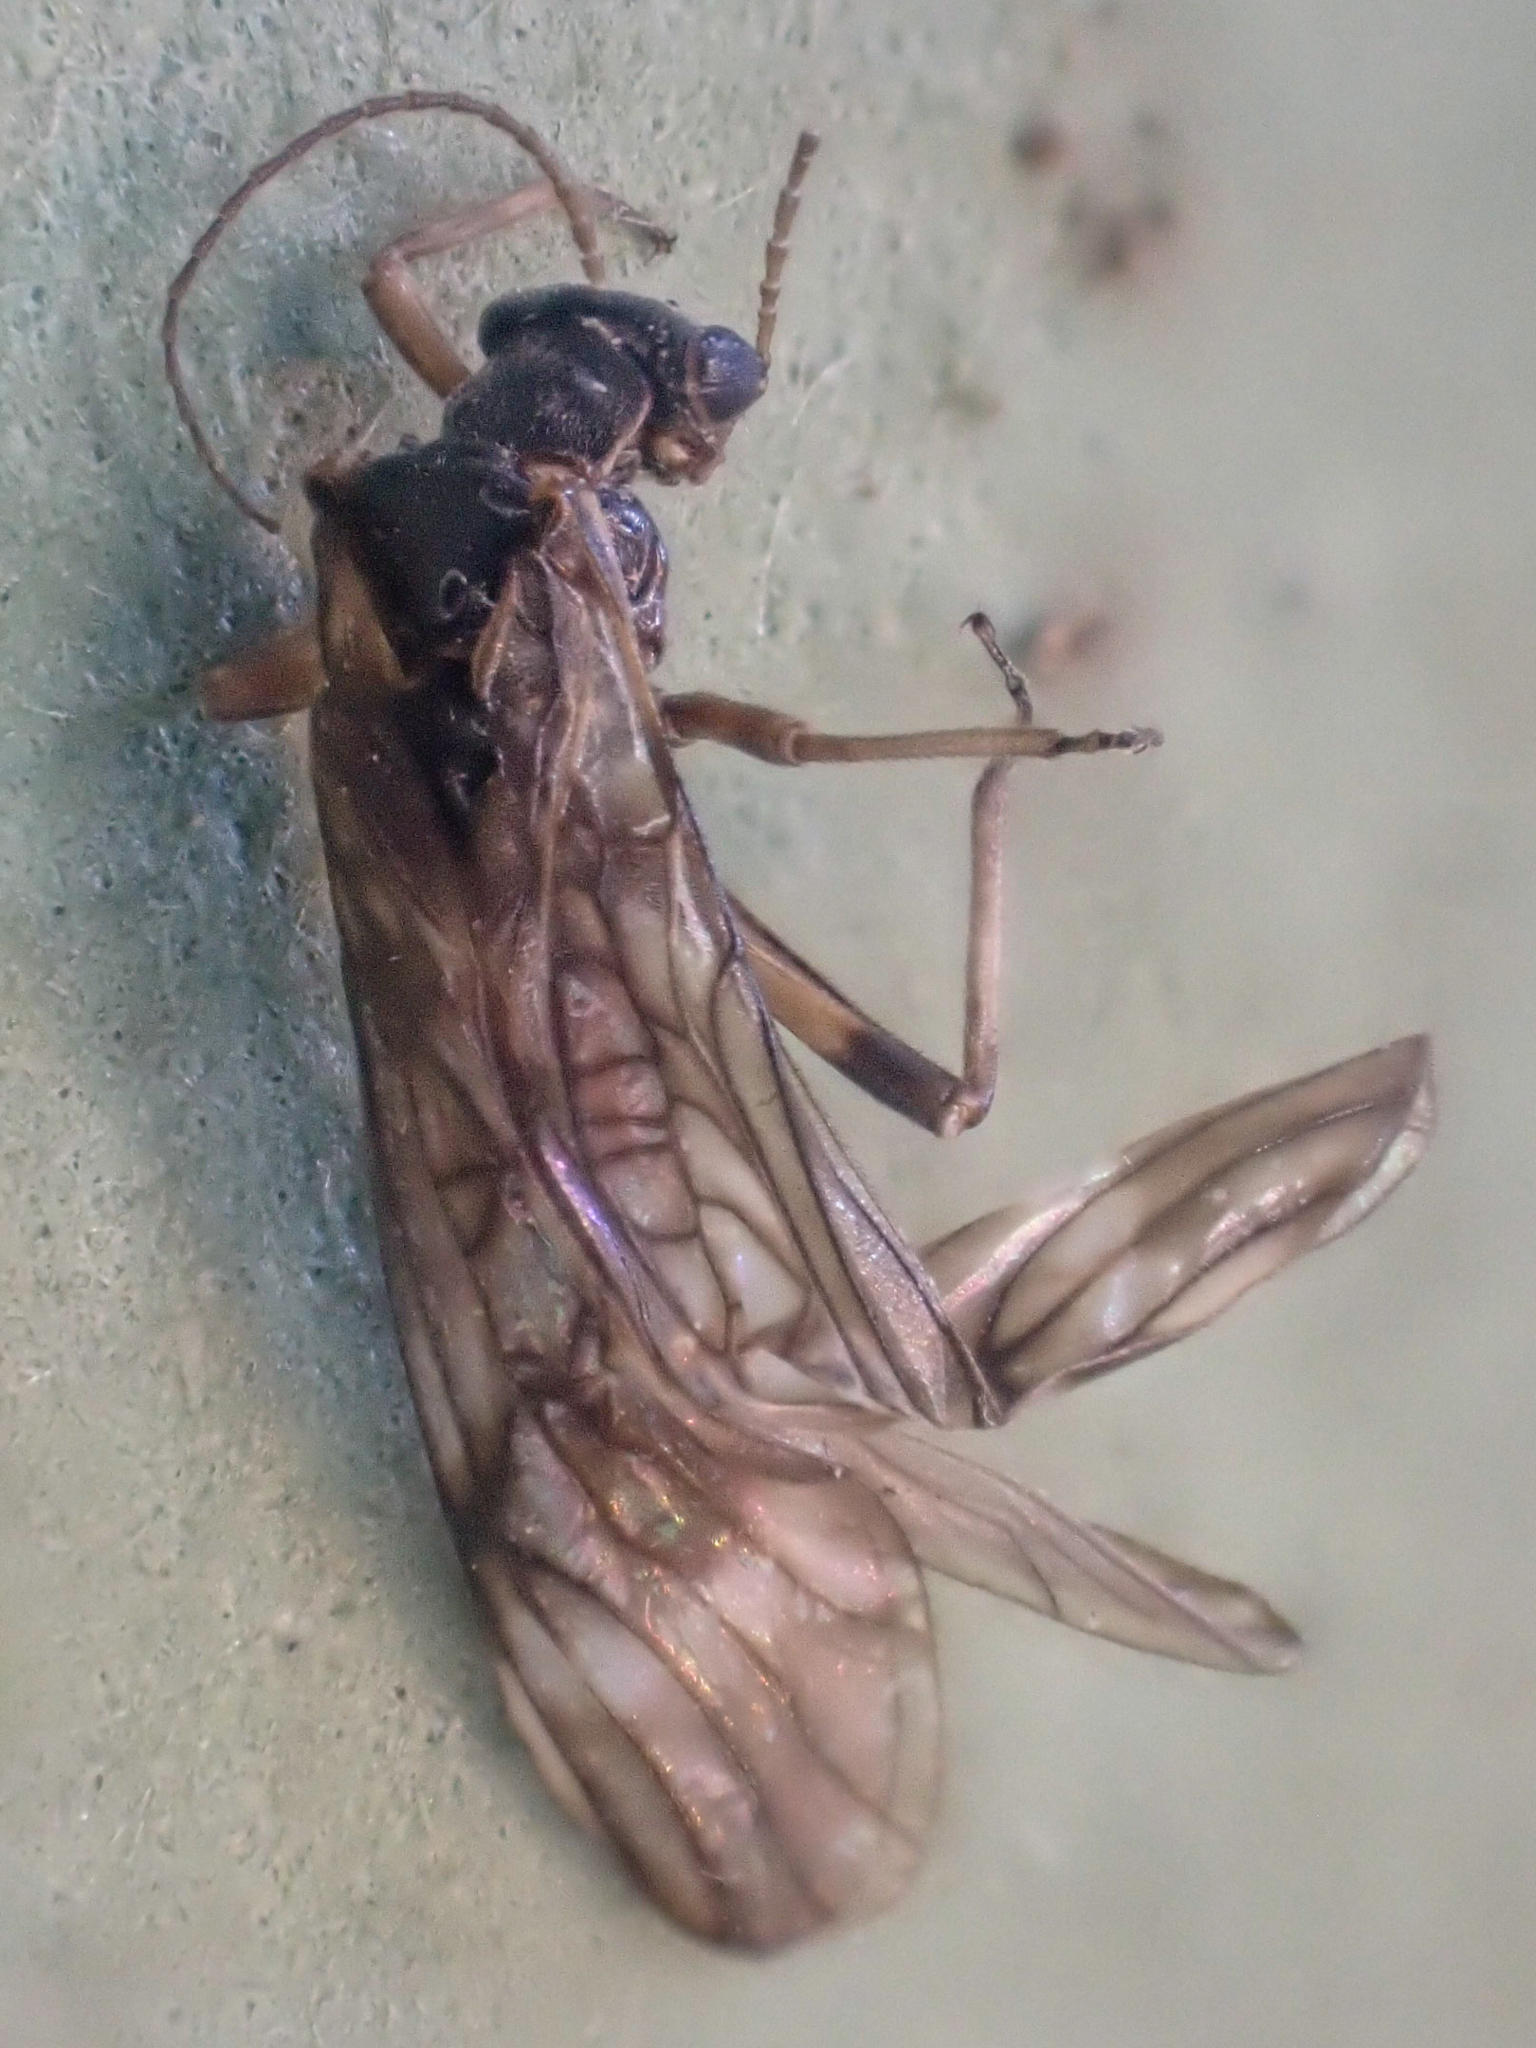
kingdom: Animalia
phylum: Arthropoda
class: Insecta
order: Plecoptera
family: Nemouridae
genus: Prostoia
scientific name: Prostoia besametsa
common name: Banded forestfly
